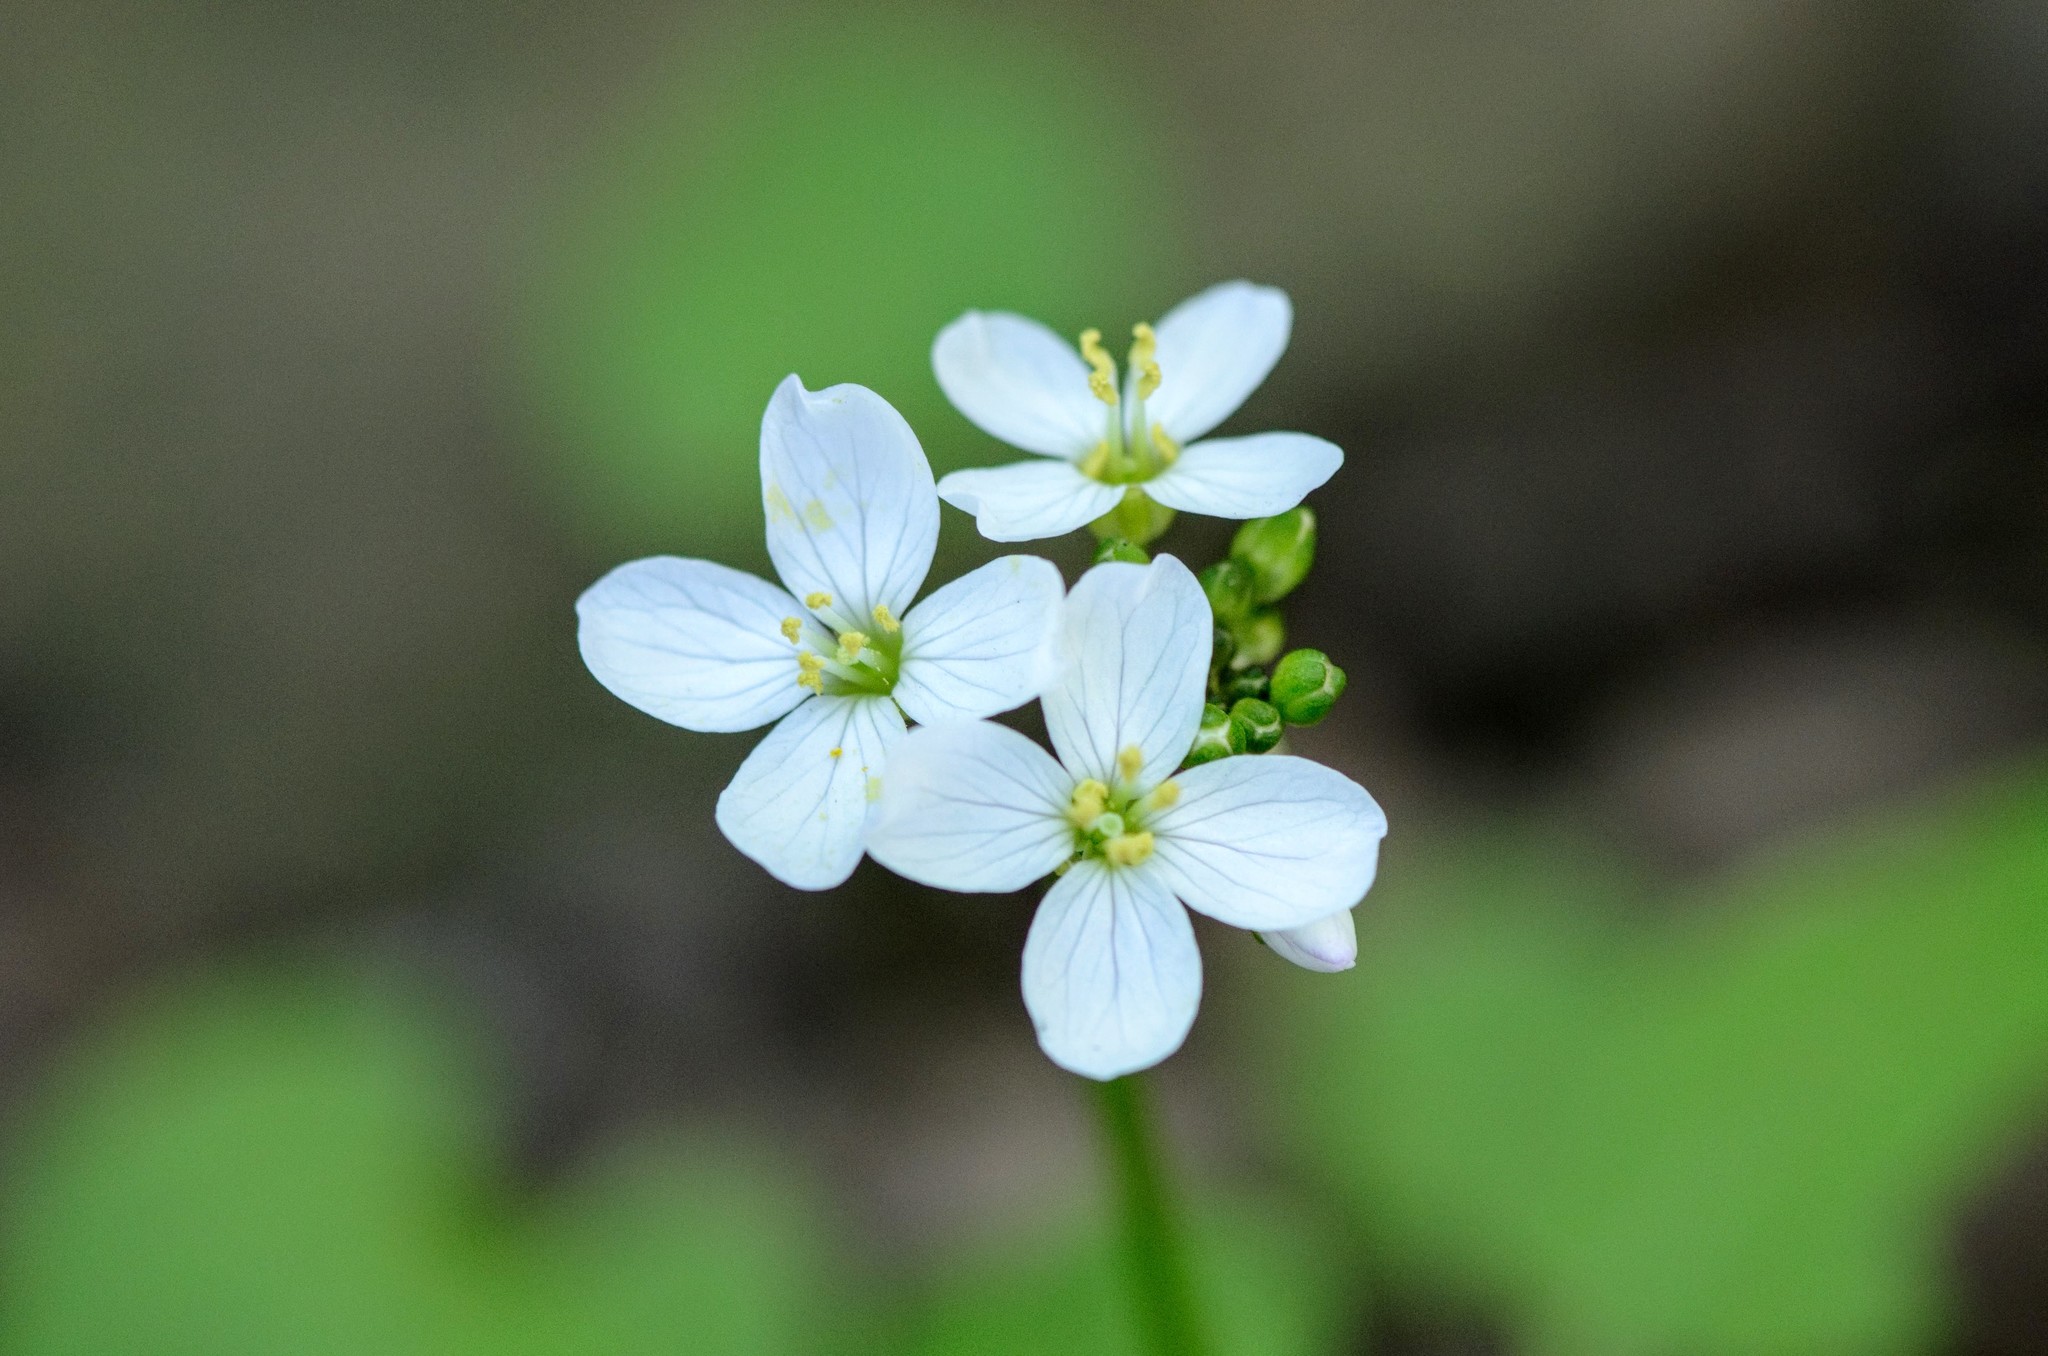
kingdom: Plantae
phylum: Tracheophyta
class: Magnoliopsida
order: Brassicales
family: Brassicaceae
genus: Cardamine
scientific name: Cardamine californica
